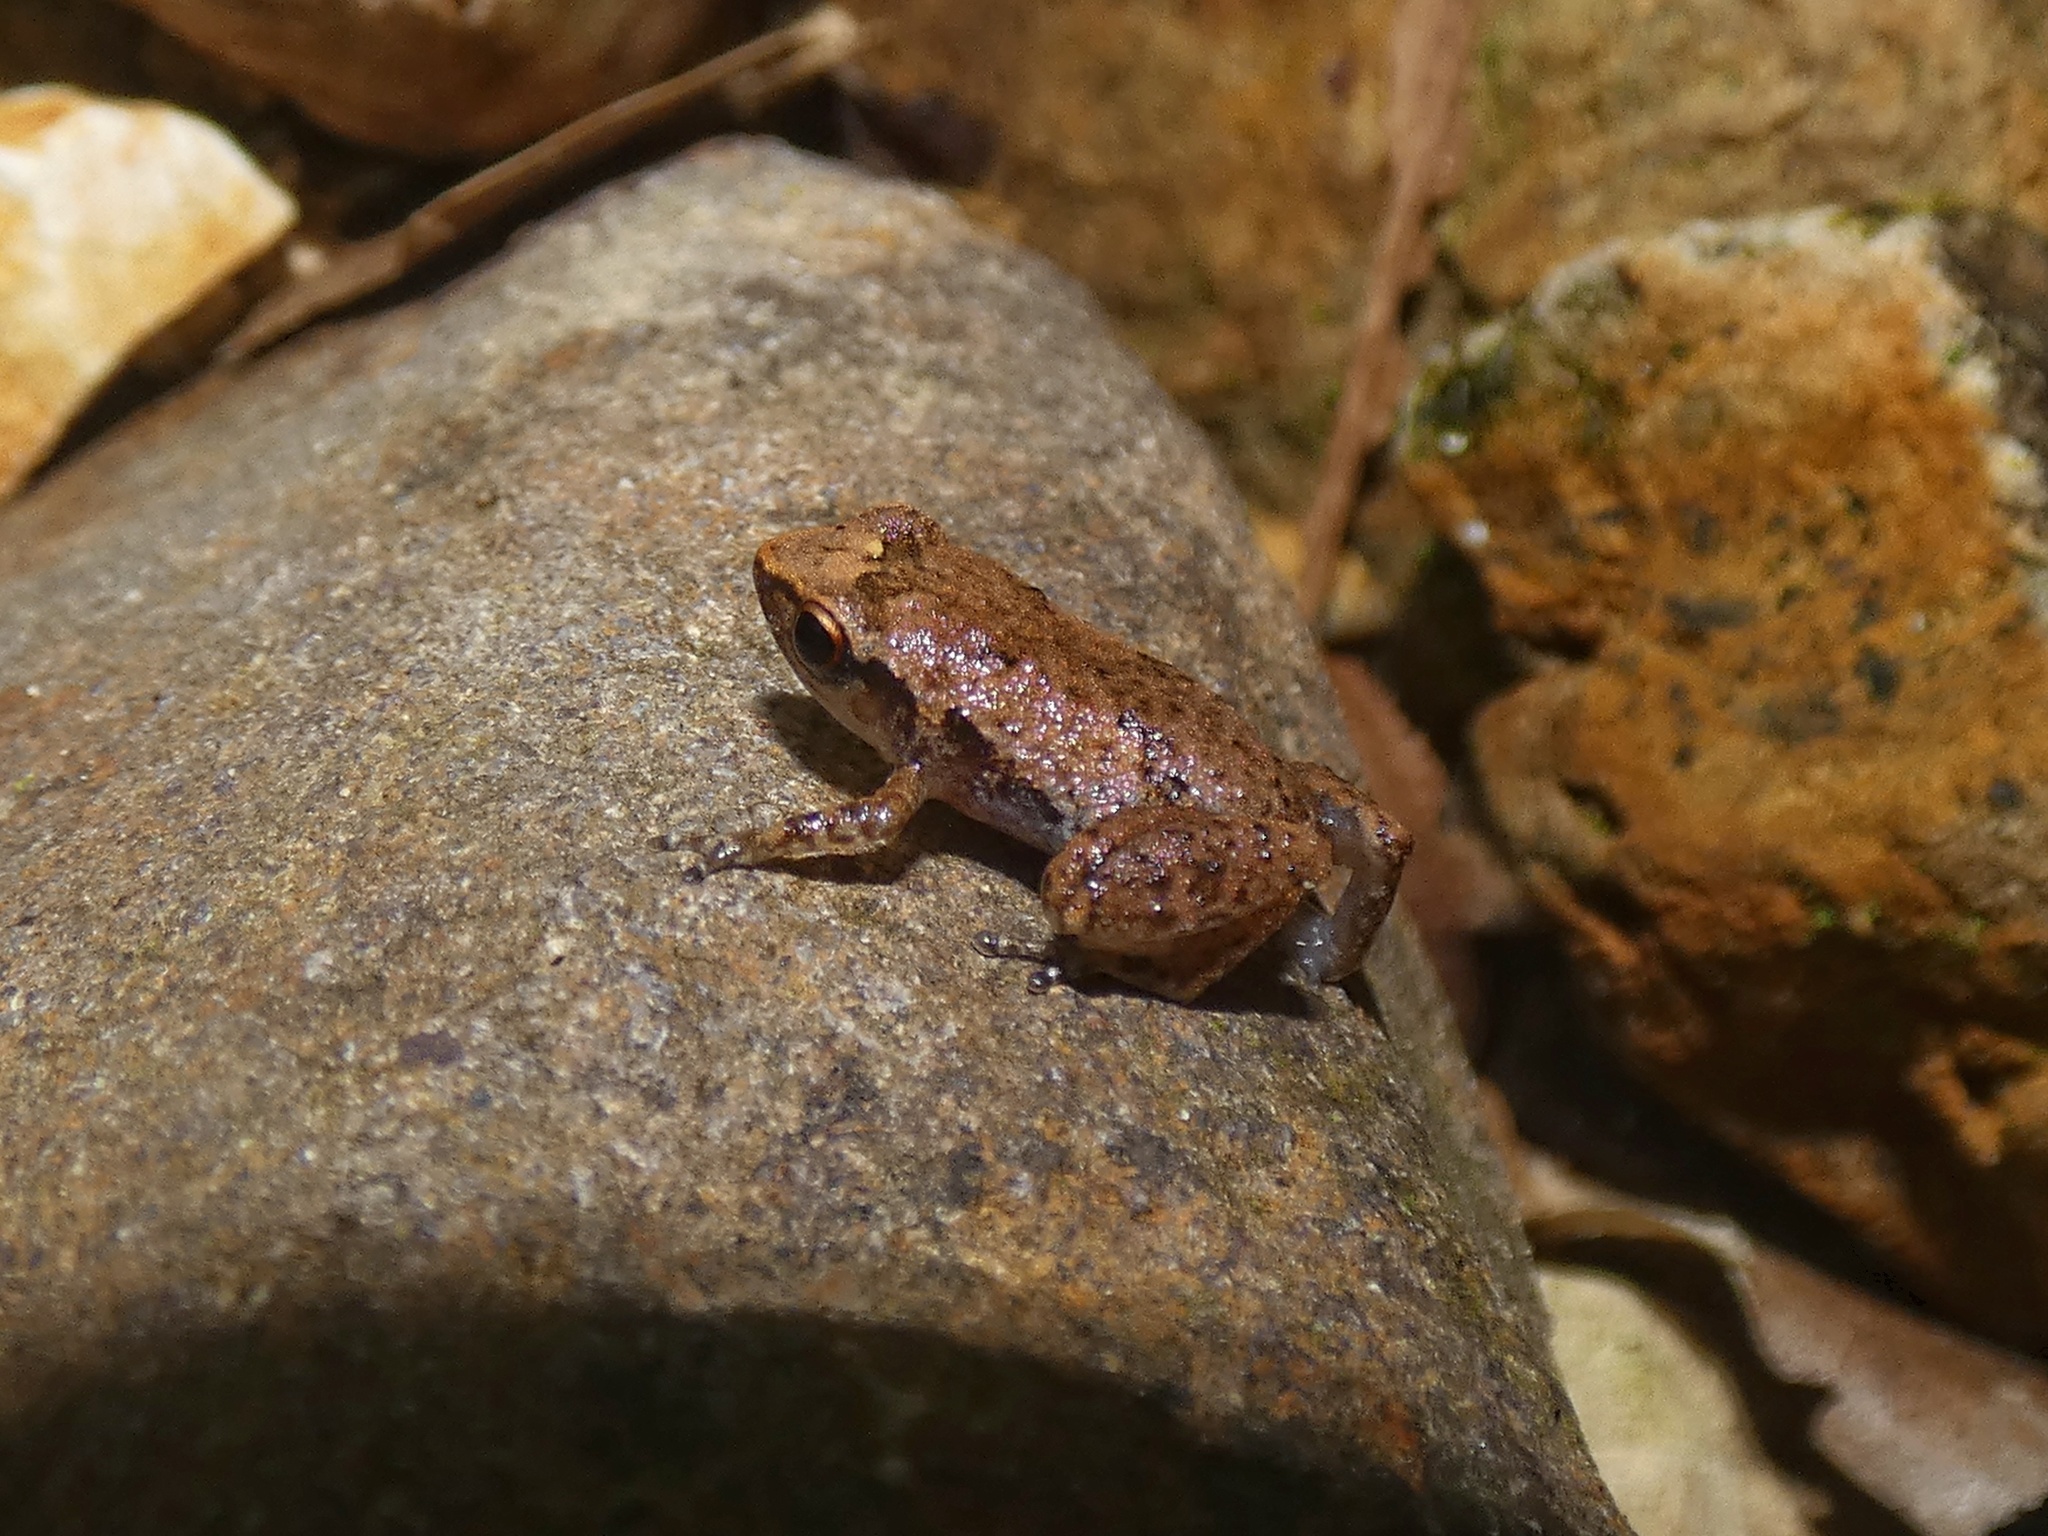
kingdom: Animalia
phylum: Chordata
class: Amphibia
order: Anura
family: Eleutherodactylidae
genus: Eleutherodactylus
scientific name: Eleutherodactylus planirostris
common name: Greenhouse frog
